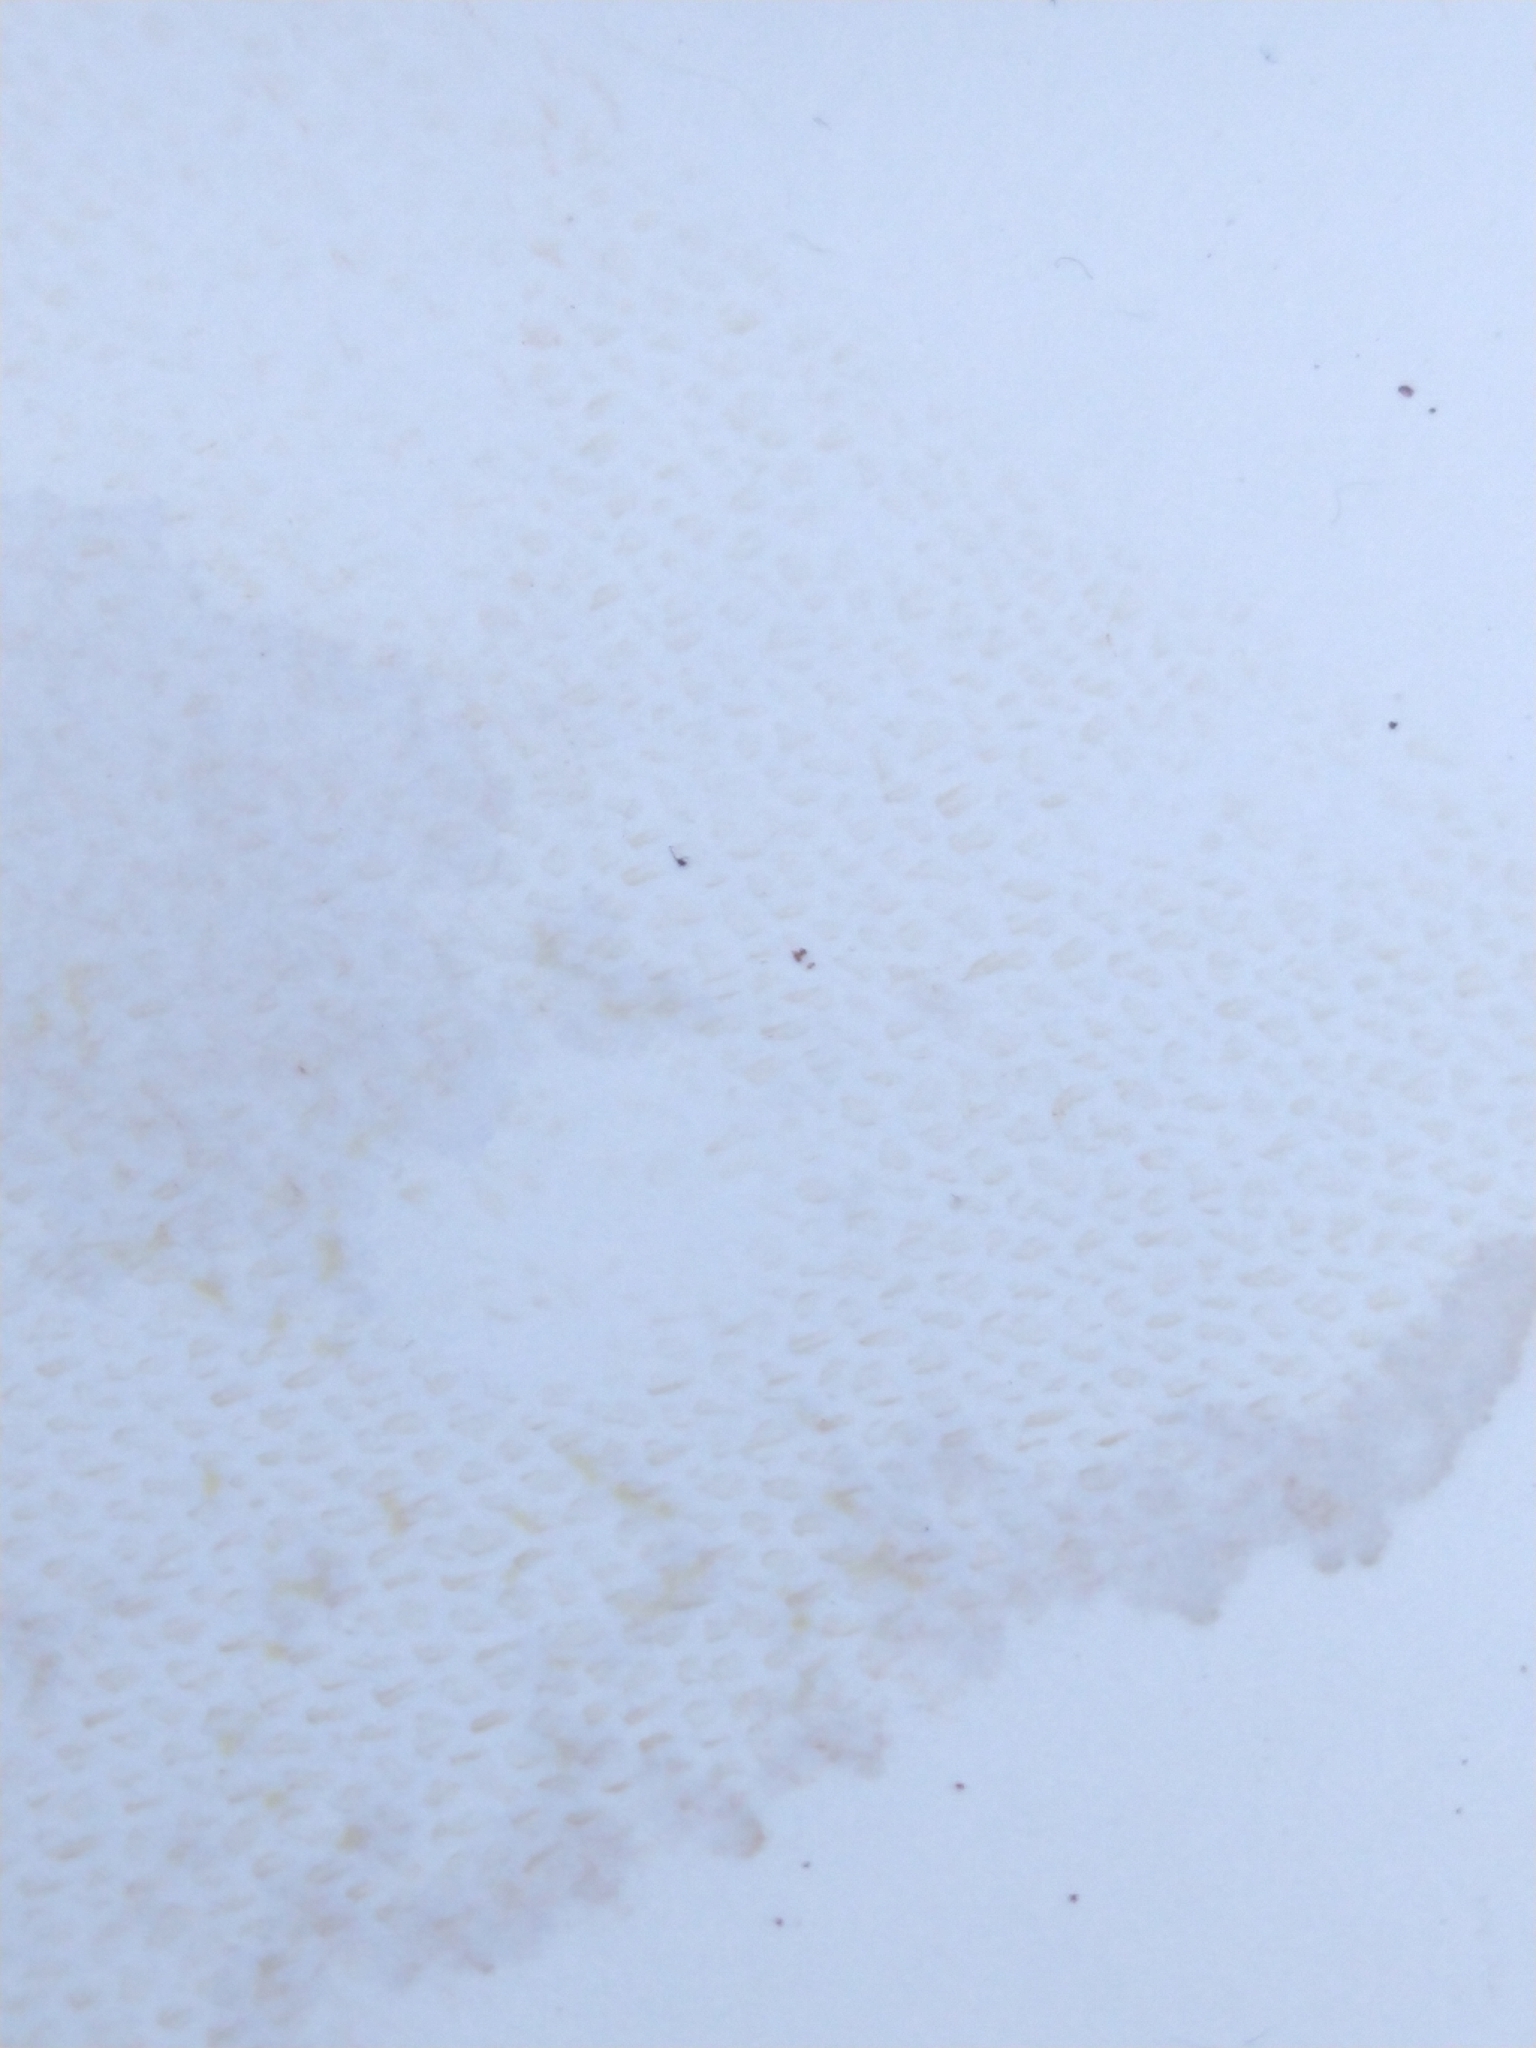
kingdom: Fungi
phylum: Basidiomycota
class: Agaricomycetes
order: Boletales
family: Suillaceae
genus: Suillus
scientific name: Suillus grevillei
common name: Larch bolete
